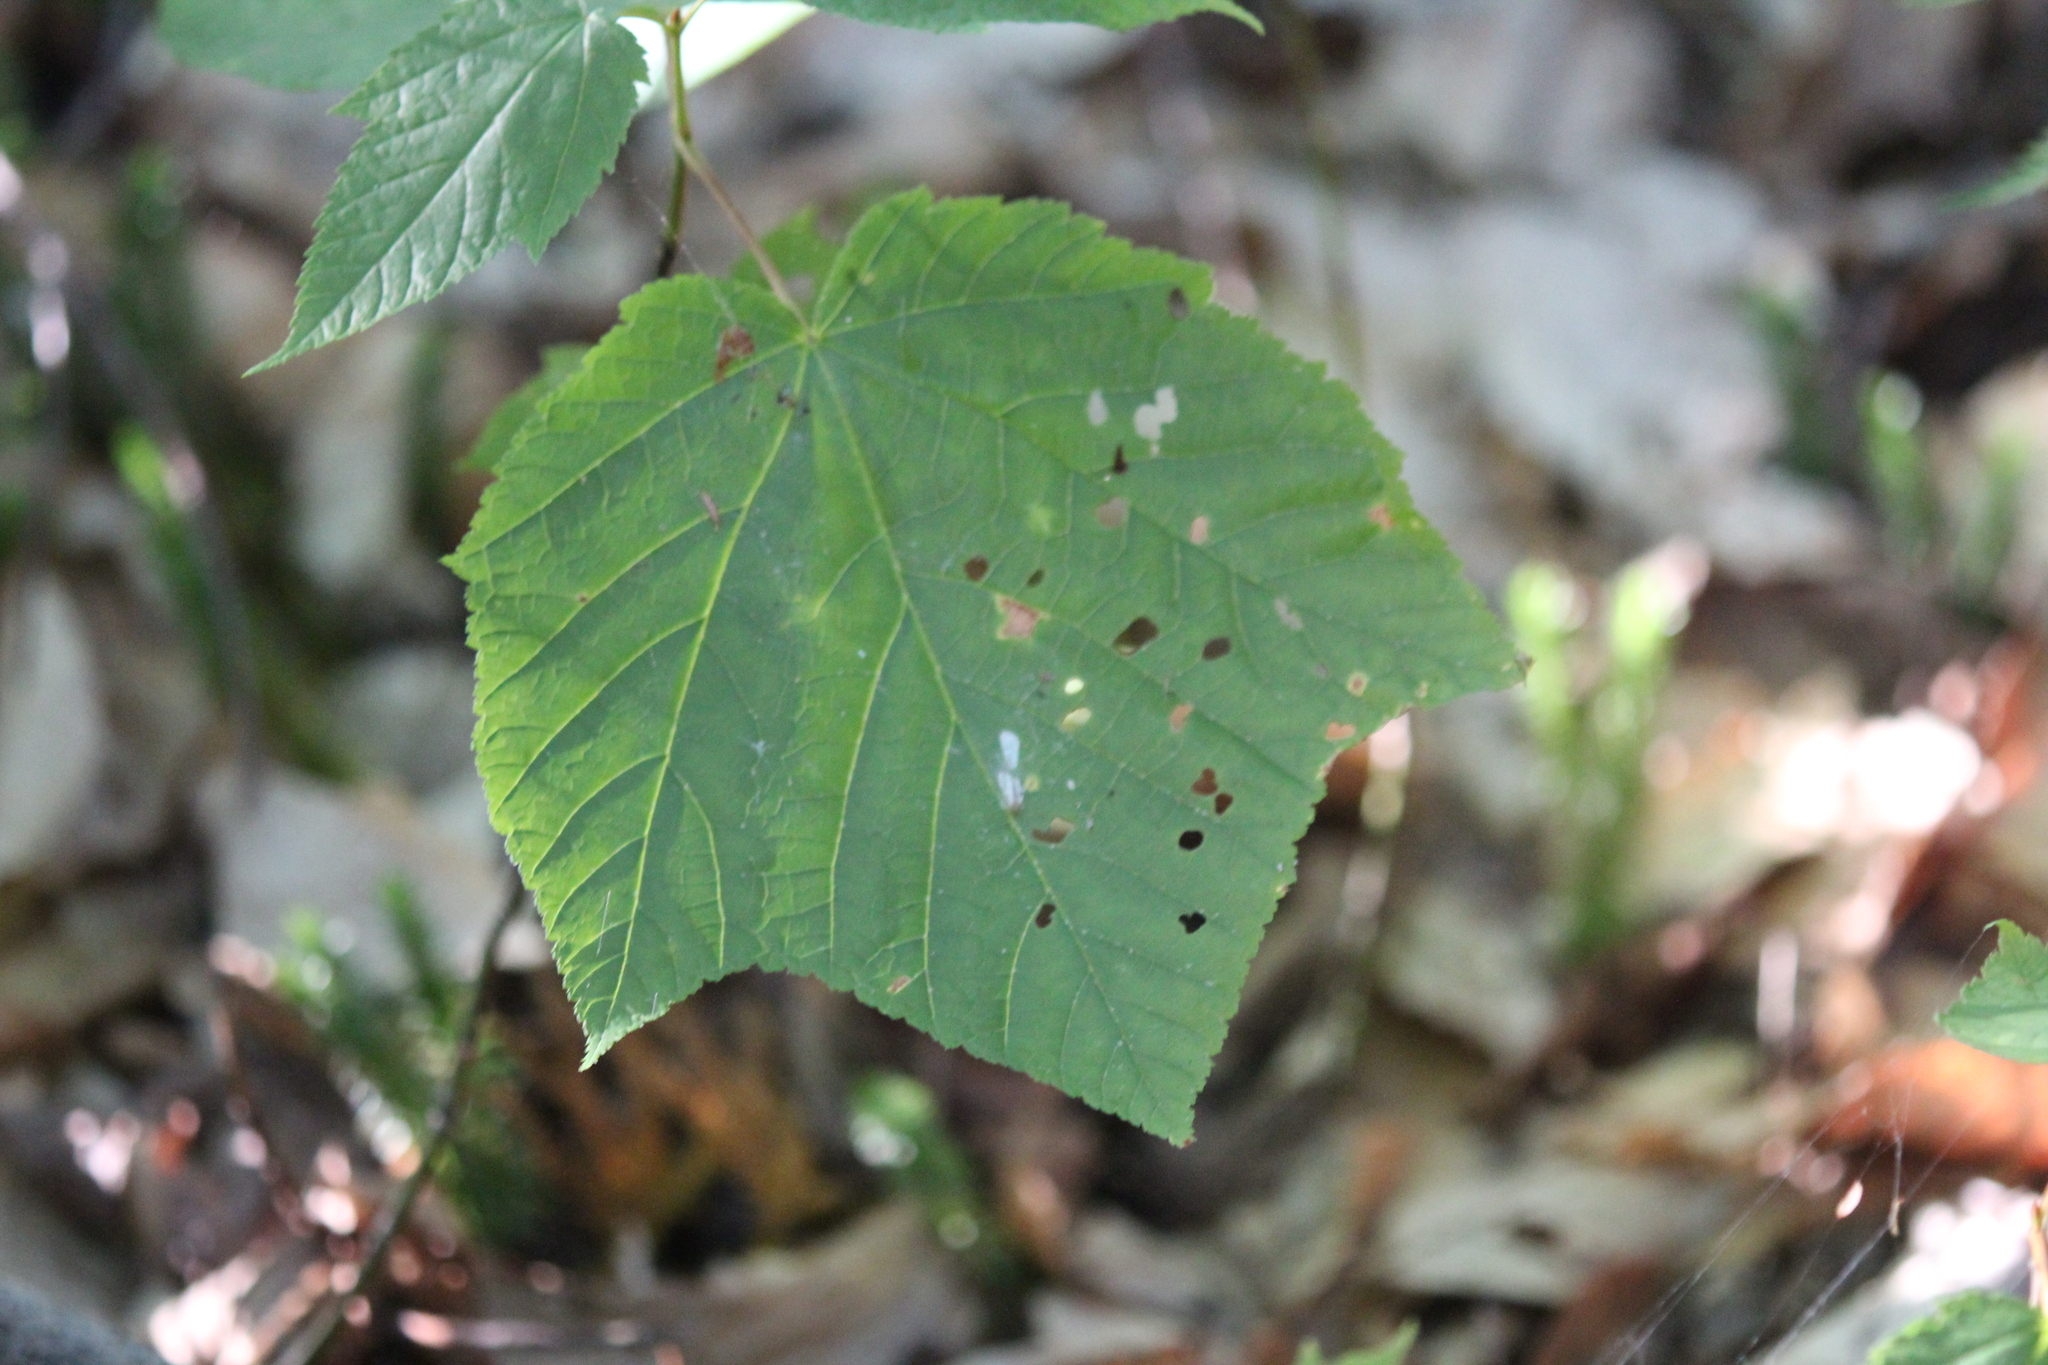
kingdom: Plantae
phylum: Tracheophyta
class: Magnoliopsida
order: Sapindales
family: Sapindaceae
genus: Acer
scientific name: Acer pensylvanicum
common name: Moosewood
